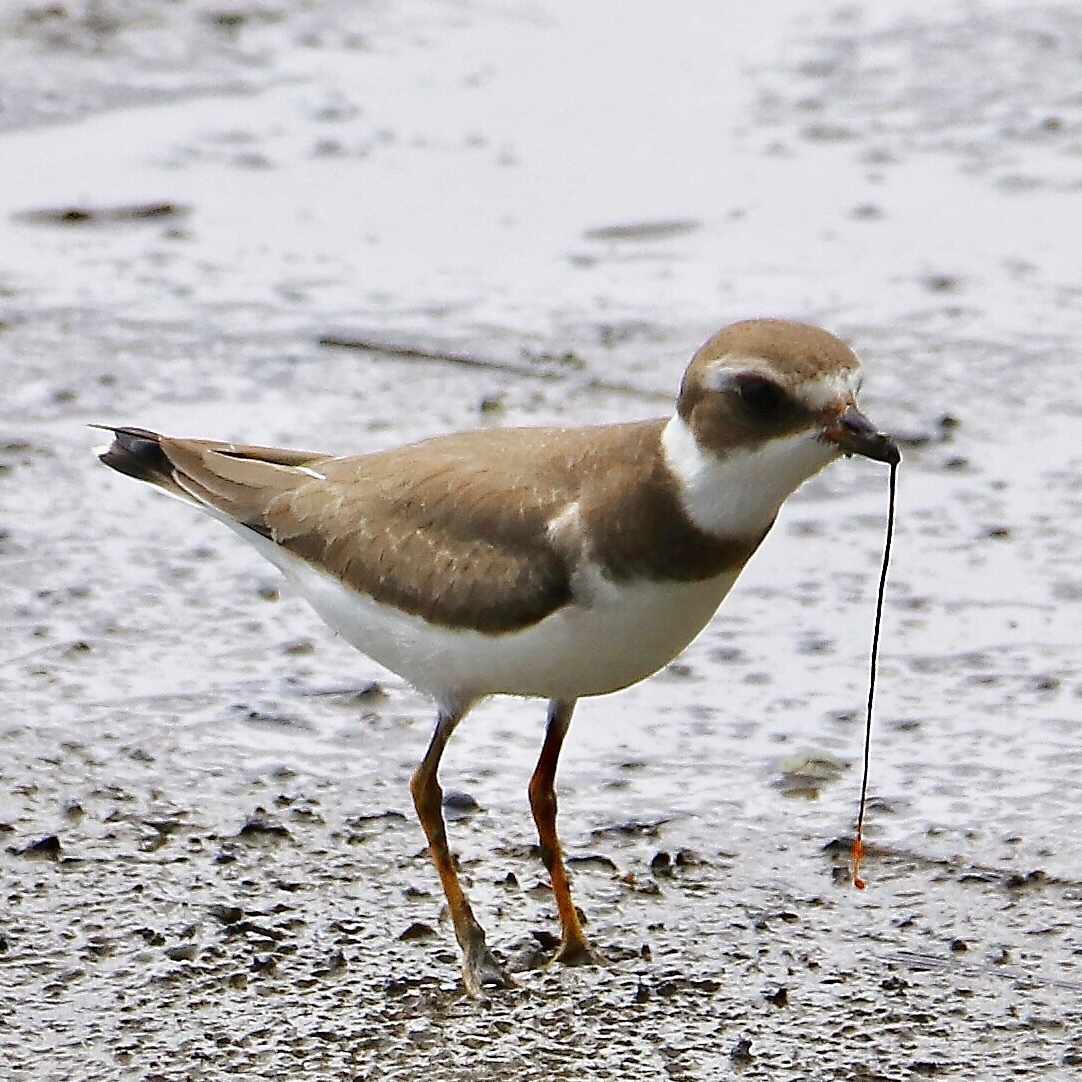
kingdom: Animalia
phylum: Chordata
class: Aves
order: Charadriiformes
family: Charadriidae
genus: Charadrius
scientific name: Charadrius semipalmatus
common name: Semipalmated plover
